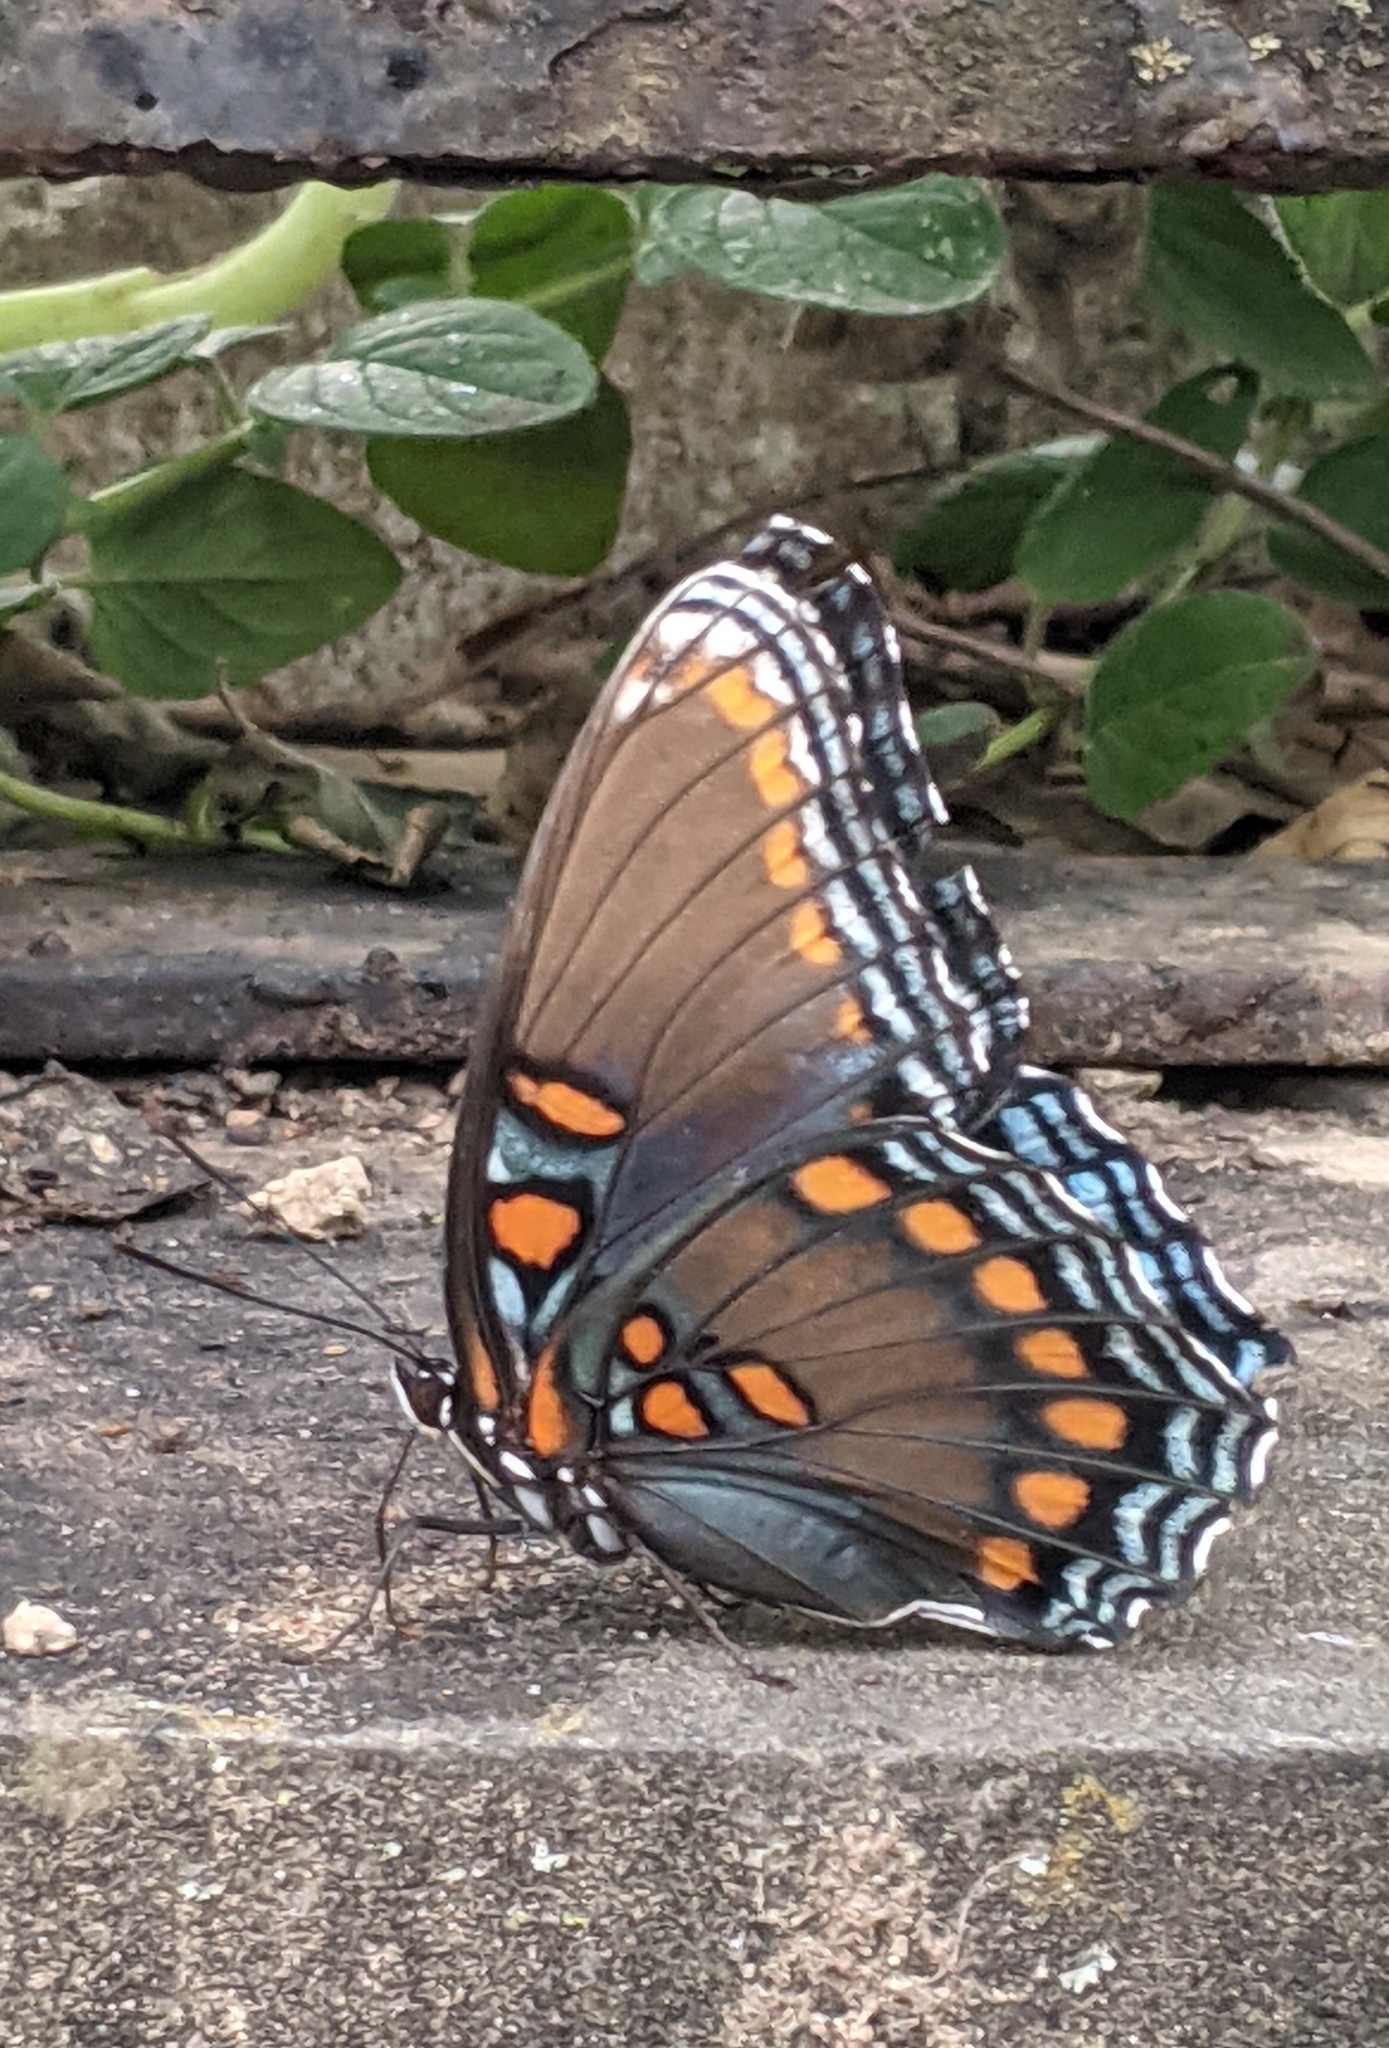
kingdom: Animalia
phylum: Arthropoda
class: Insecta
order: Lepidoptera
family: Nymphalidae
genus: Limenitis
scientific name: Limenitis arthemis
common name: Red-spotted admiral
